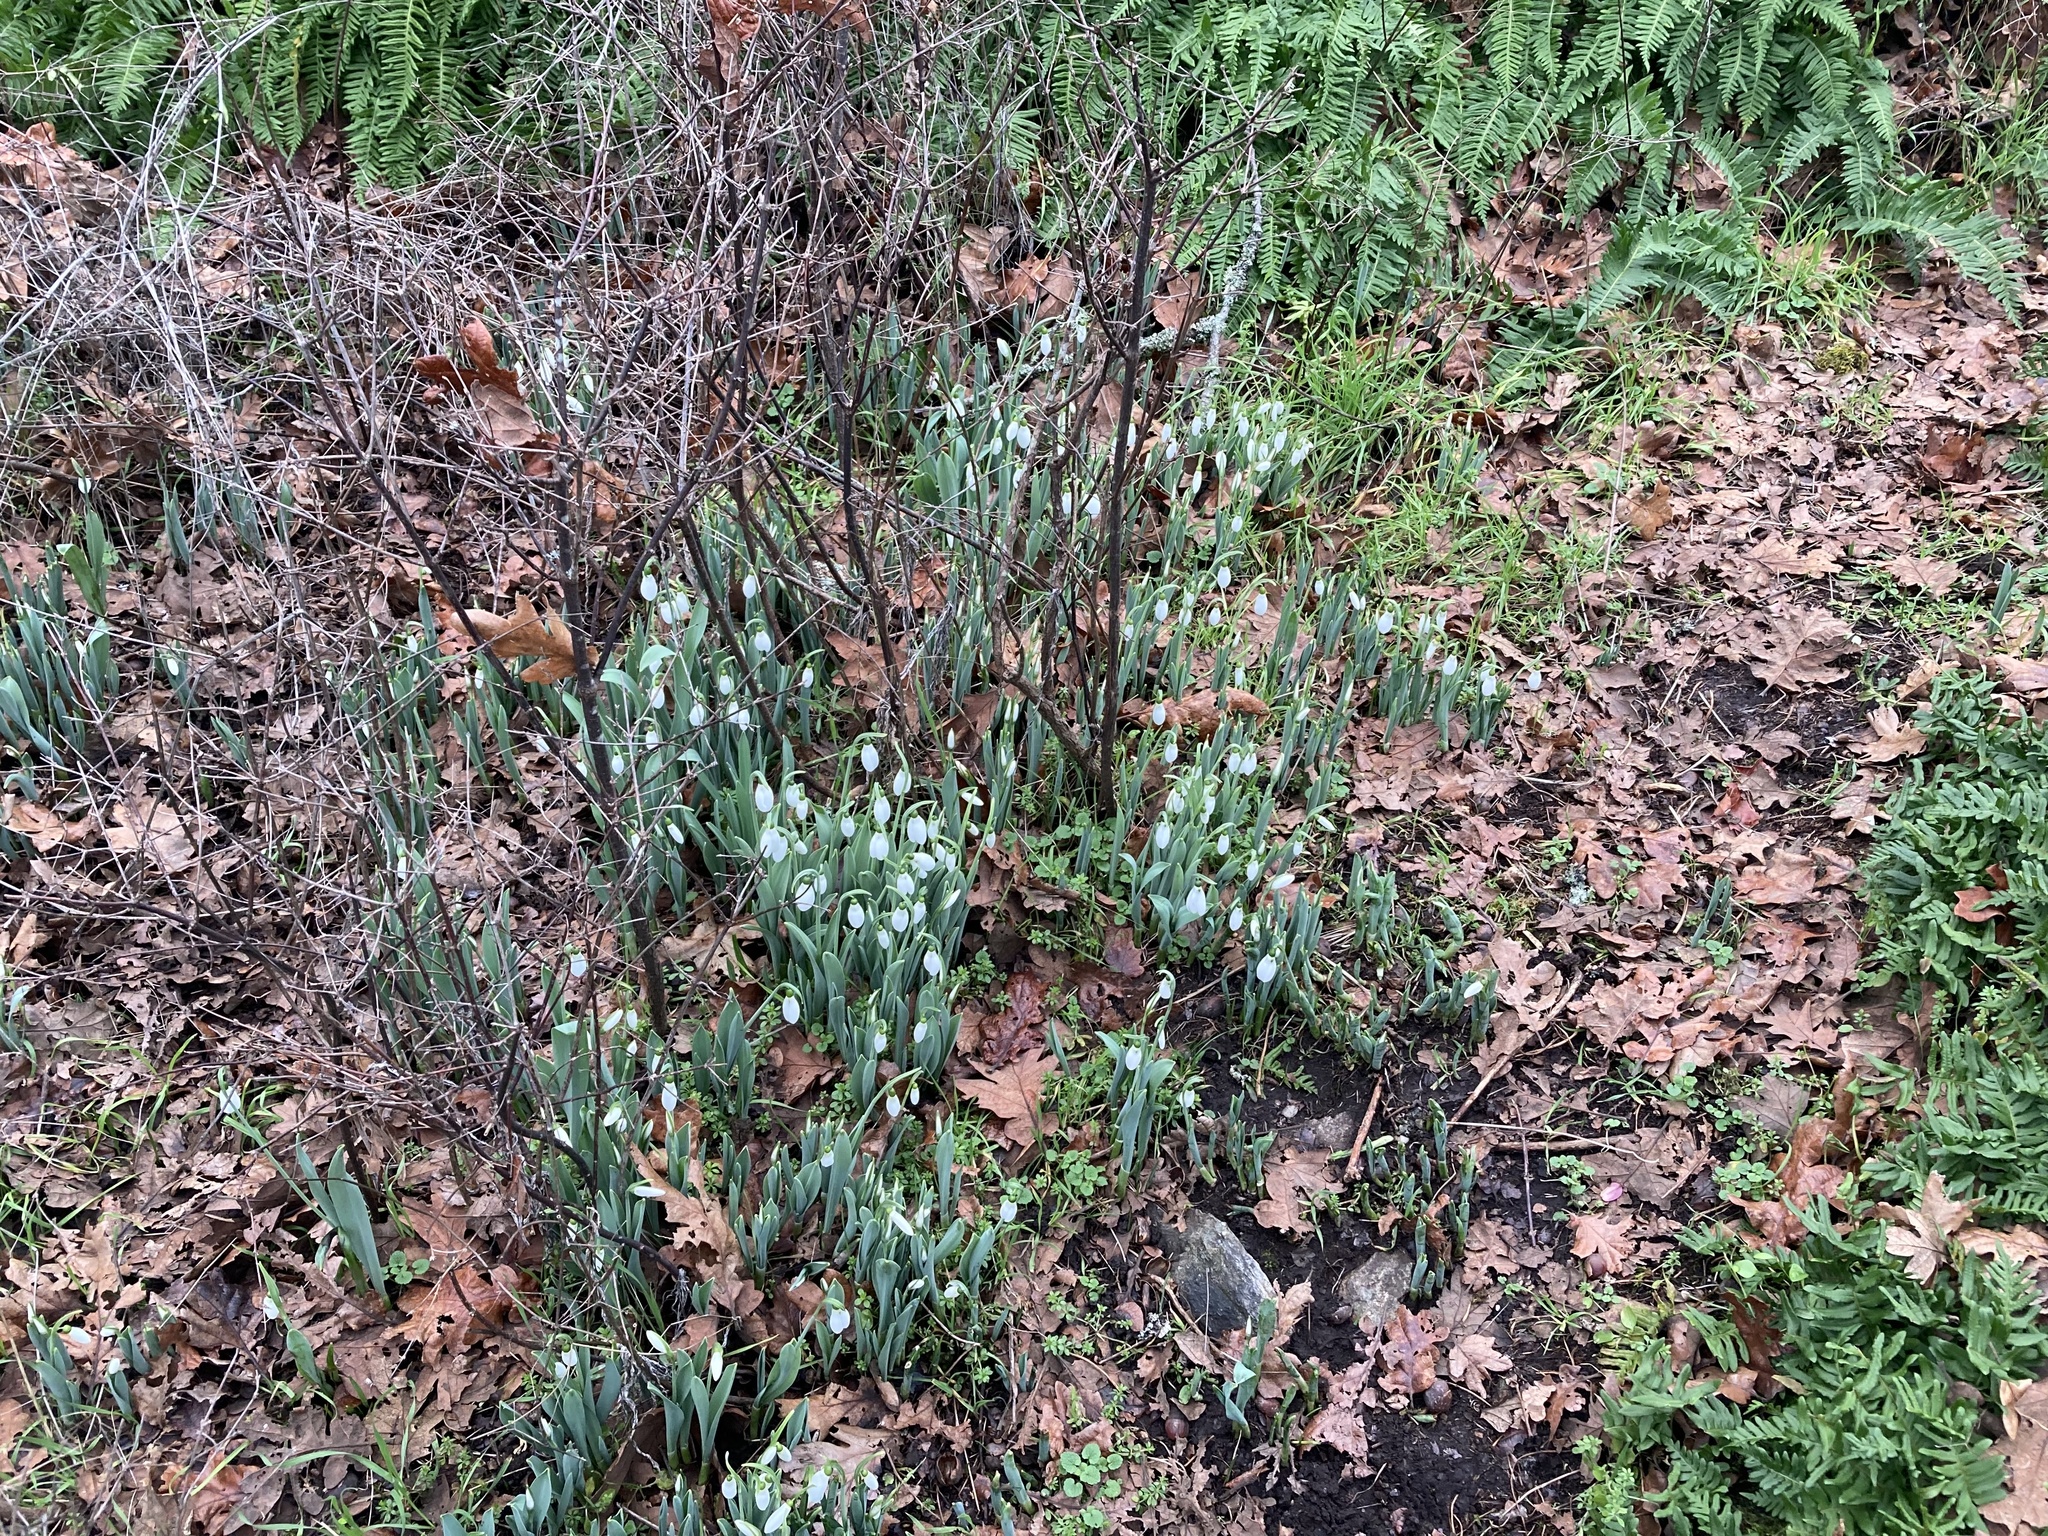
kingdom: Plantae
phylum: Tracheophyta
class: Liliopsida
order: Asparagales
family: Amaryllidaceae
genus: Galanthus
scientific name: Galanthus elwesii
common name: Greater snowdrop
